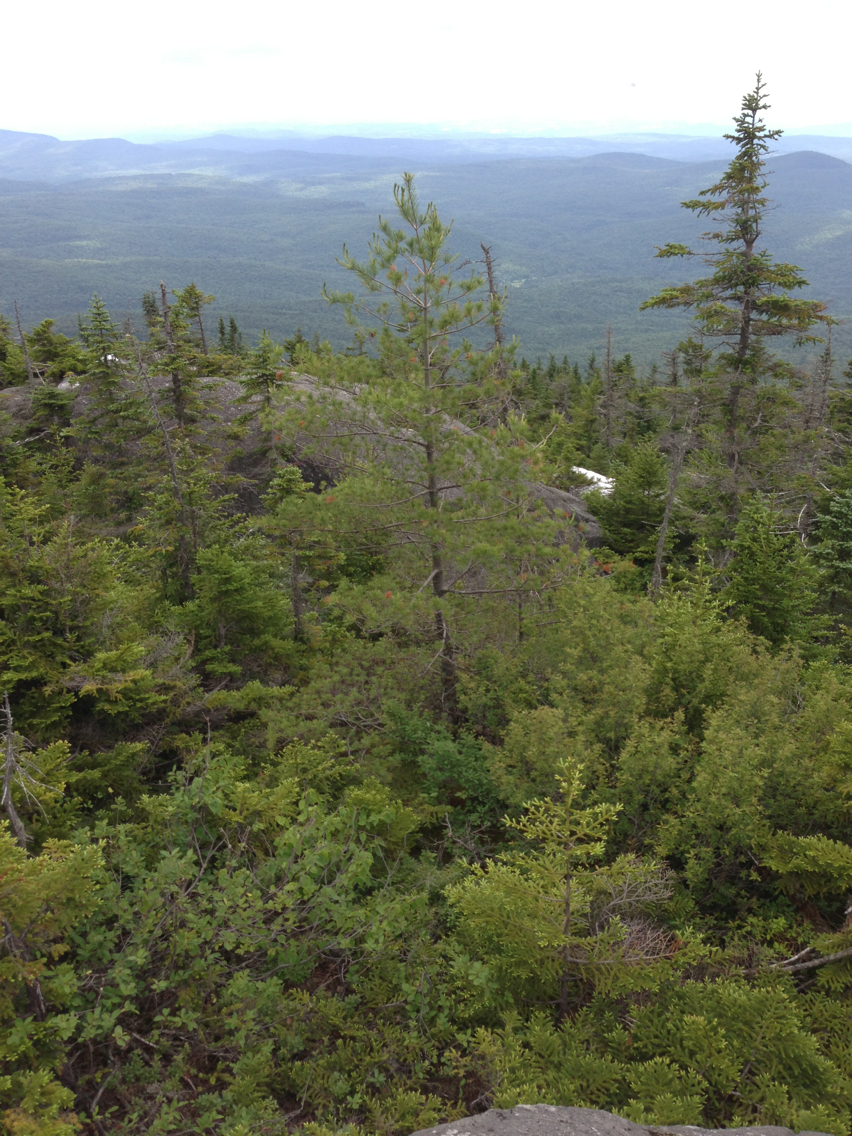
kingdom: Plantae
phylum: Tracheophyta
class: Pinopsida
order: Pinales
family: Pinaceae
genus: Pinus
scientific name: Pinus strobus
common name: Weymouth pine
